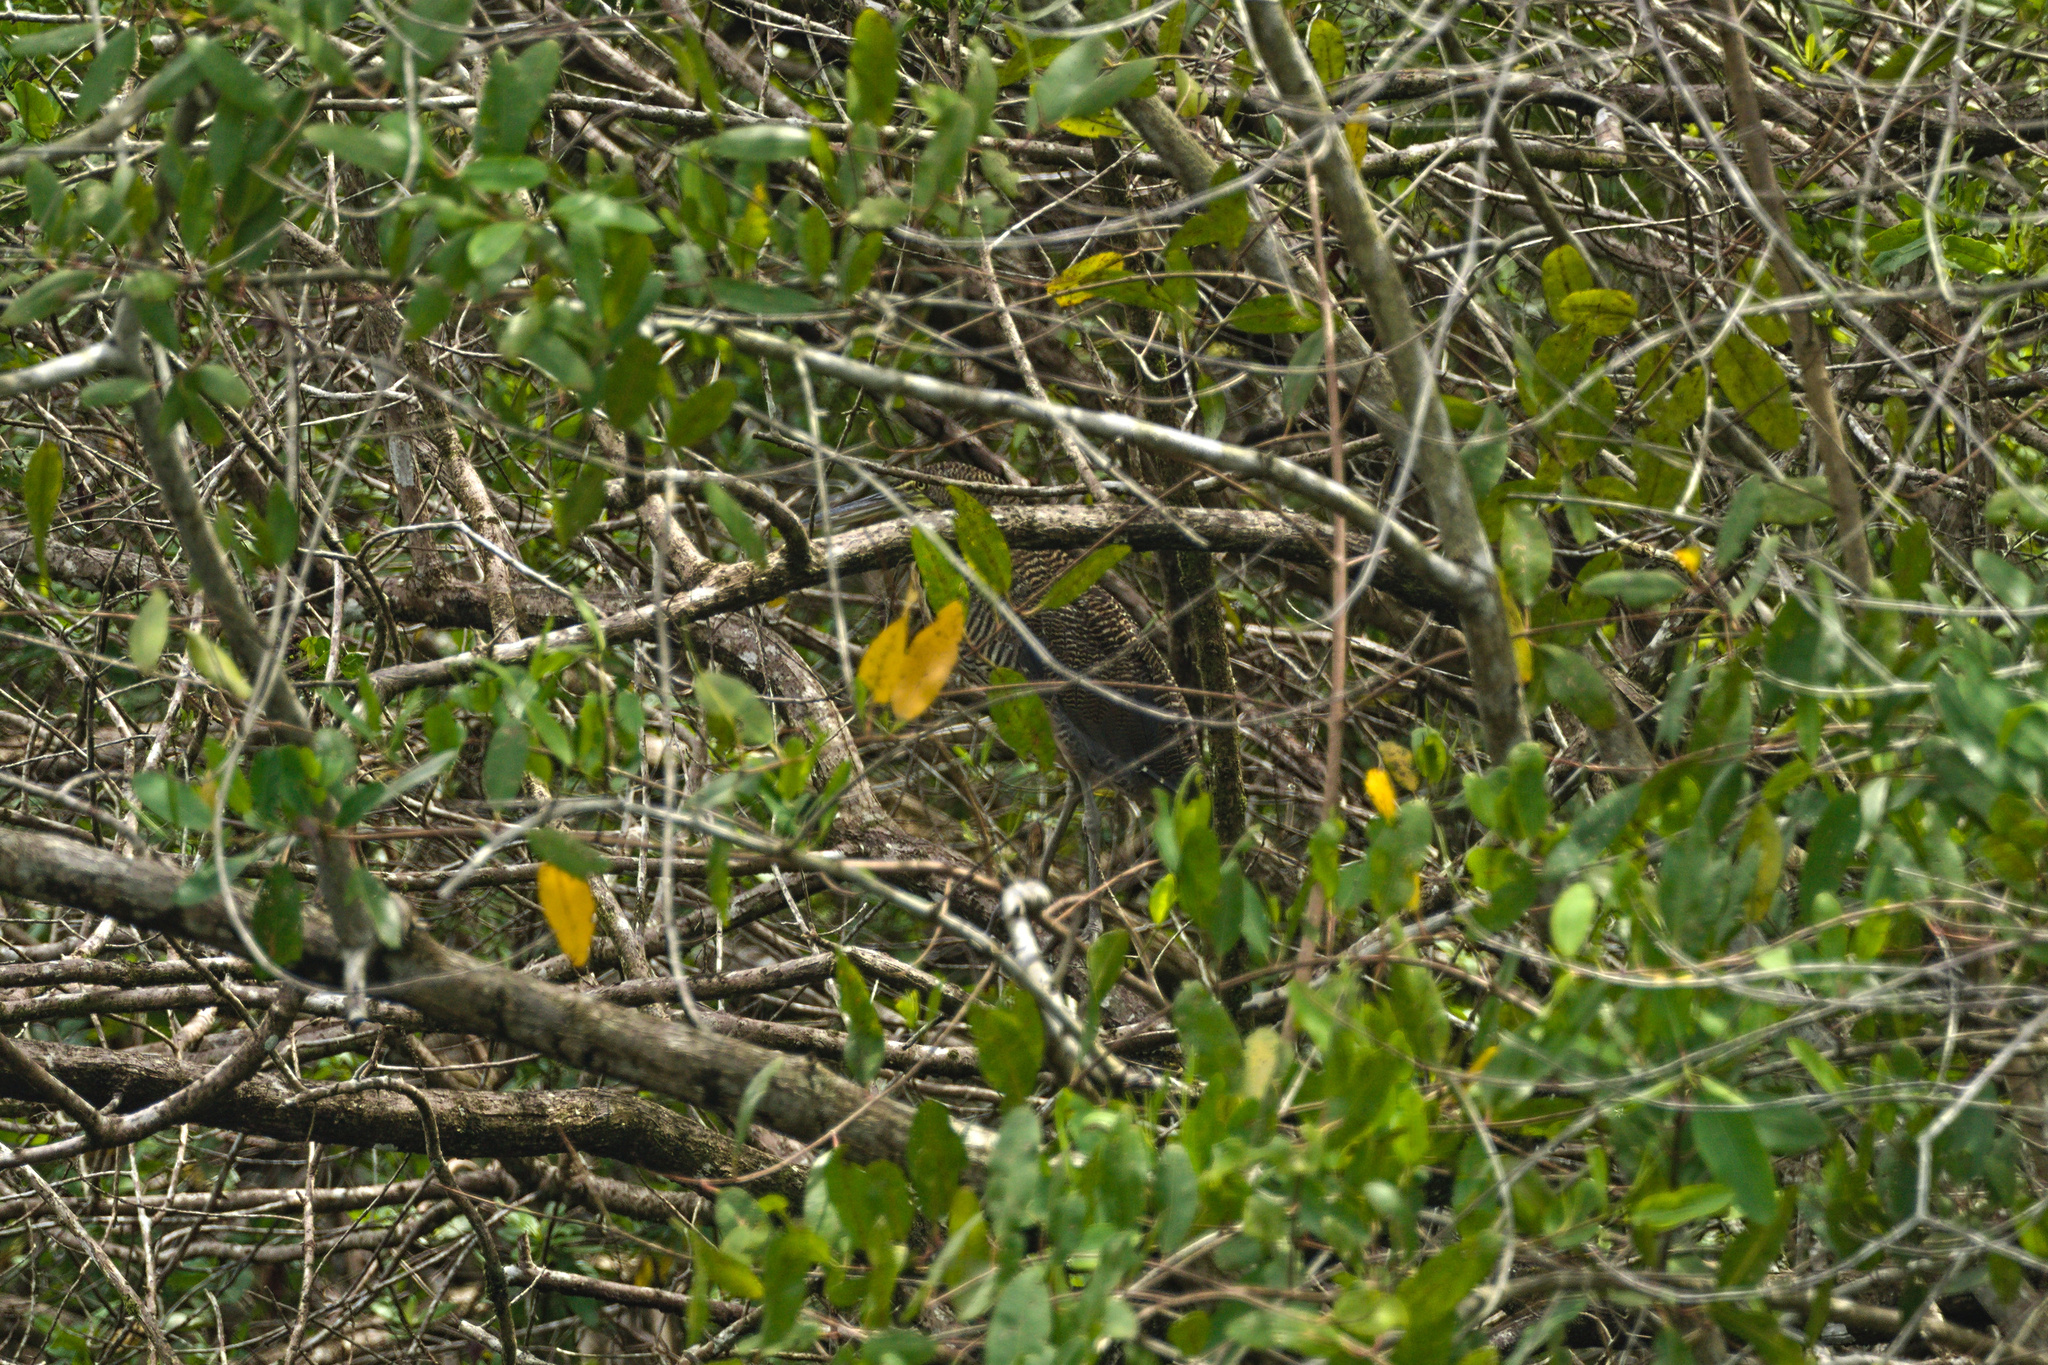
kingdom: Animalia
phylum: Chordata
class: Aves
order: Pelecaniformes
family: Ardeidae
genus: Tigrisoma
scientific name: Tigrisoma mexicanum
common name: Bare-throated tiger-heron
